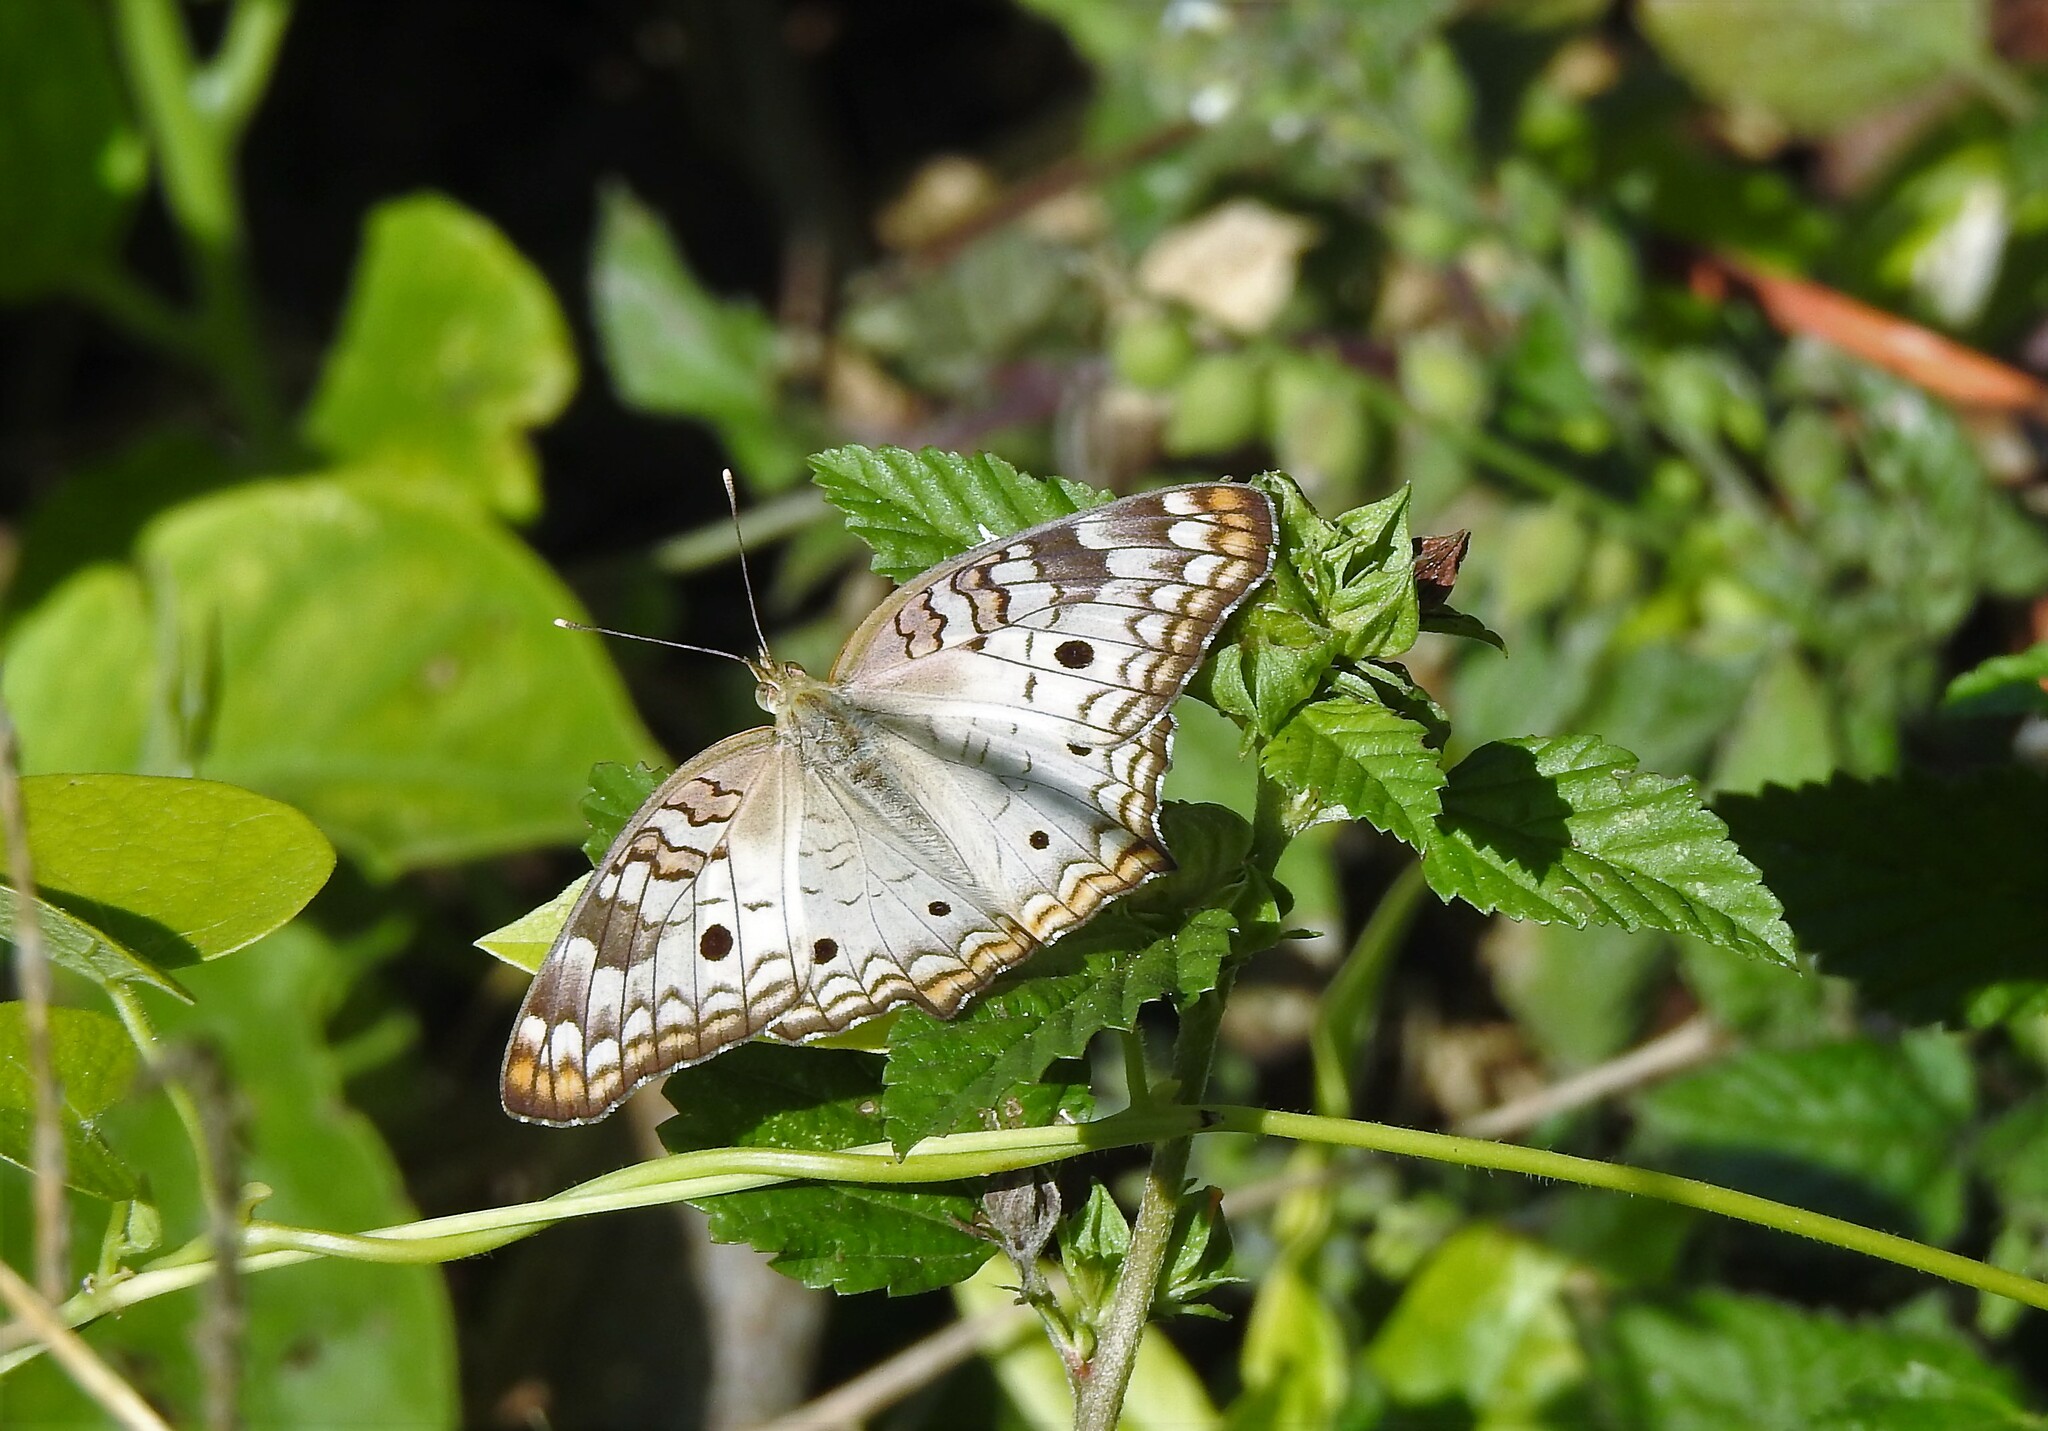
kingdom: Animalia
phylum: Arthropoda
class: Insecta
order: Lepidoptera
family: Nymphalidae
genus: Anartia
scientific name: Anartia jatrophae
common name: White peacock
